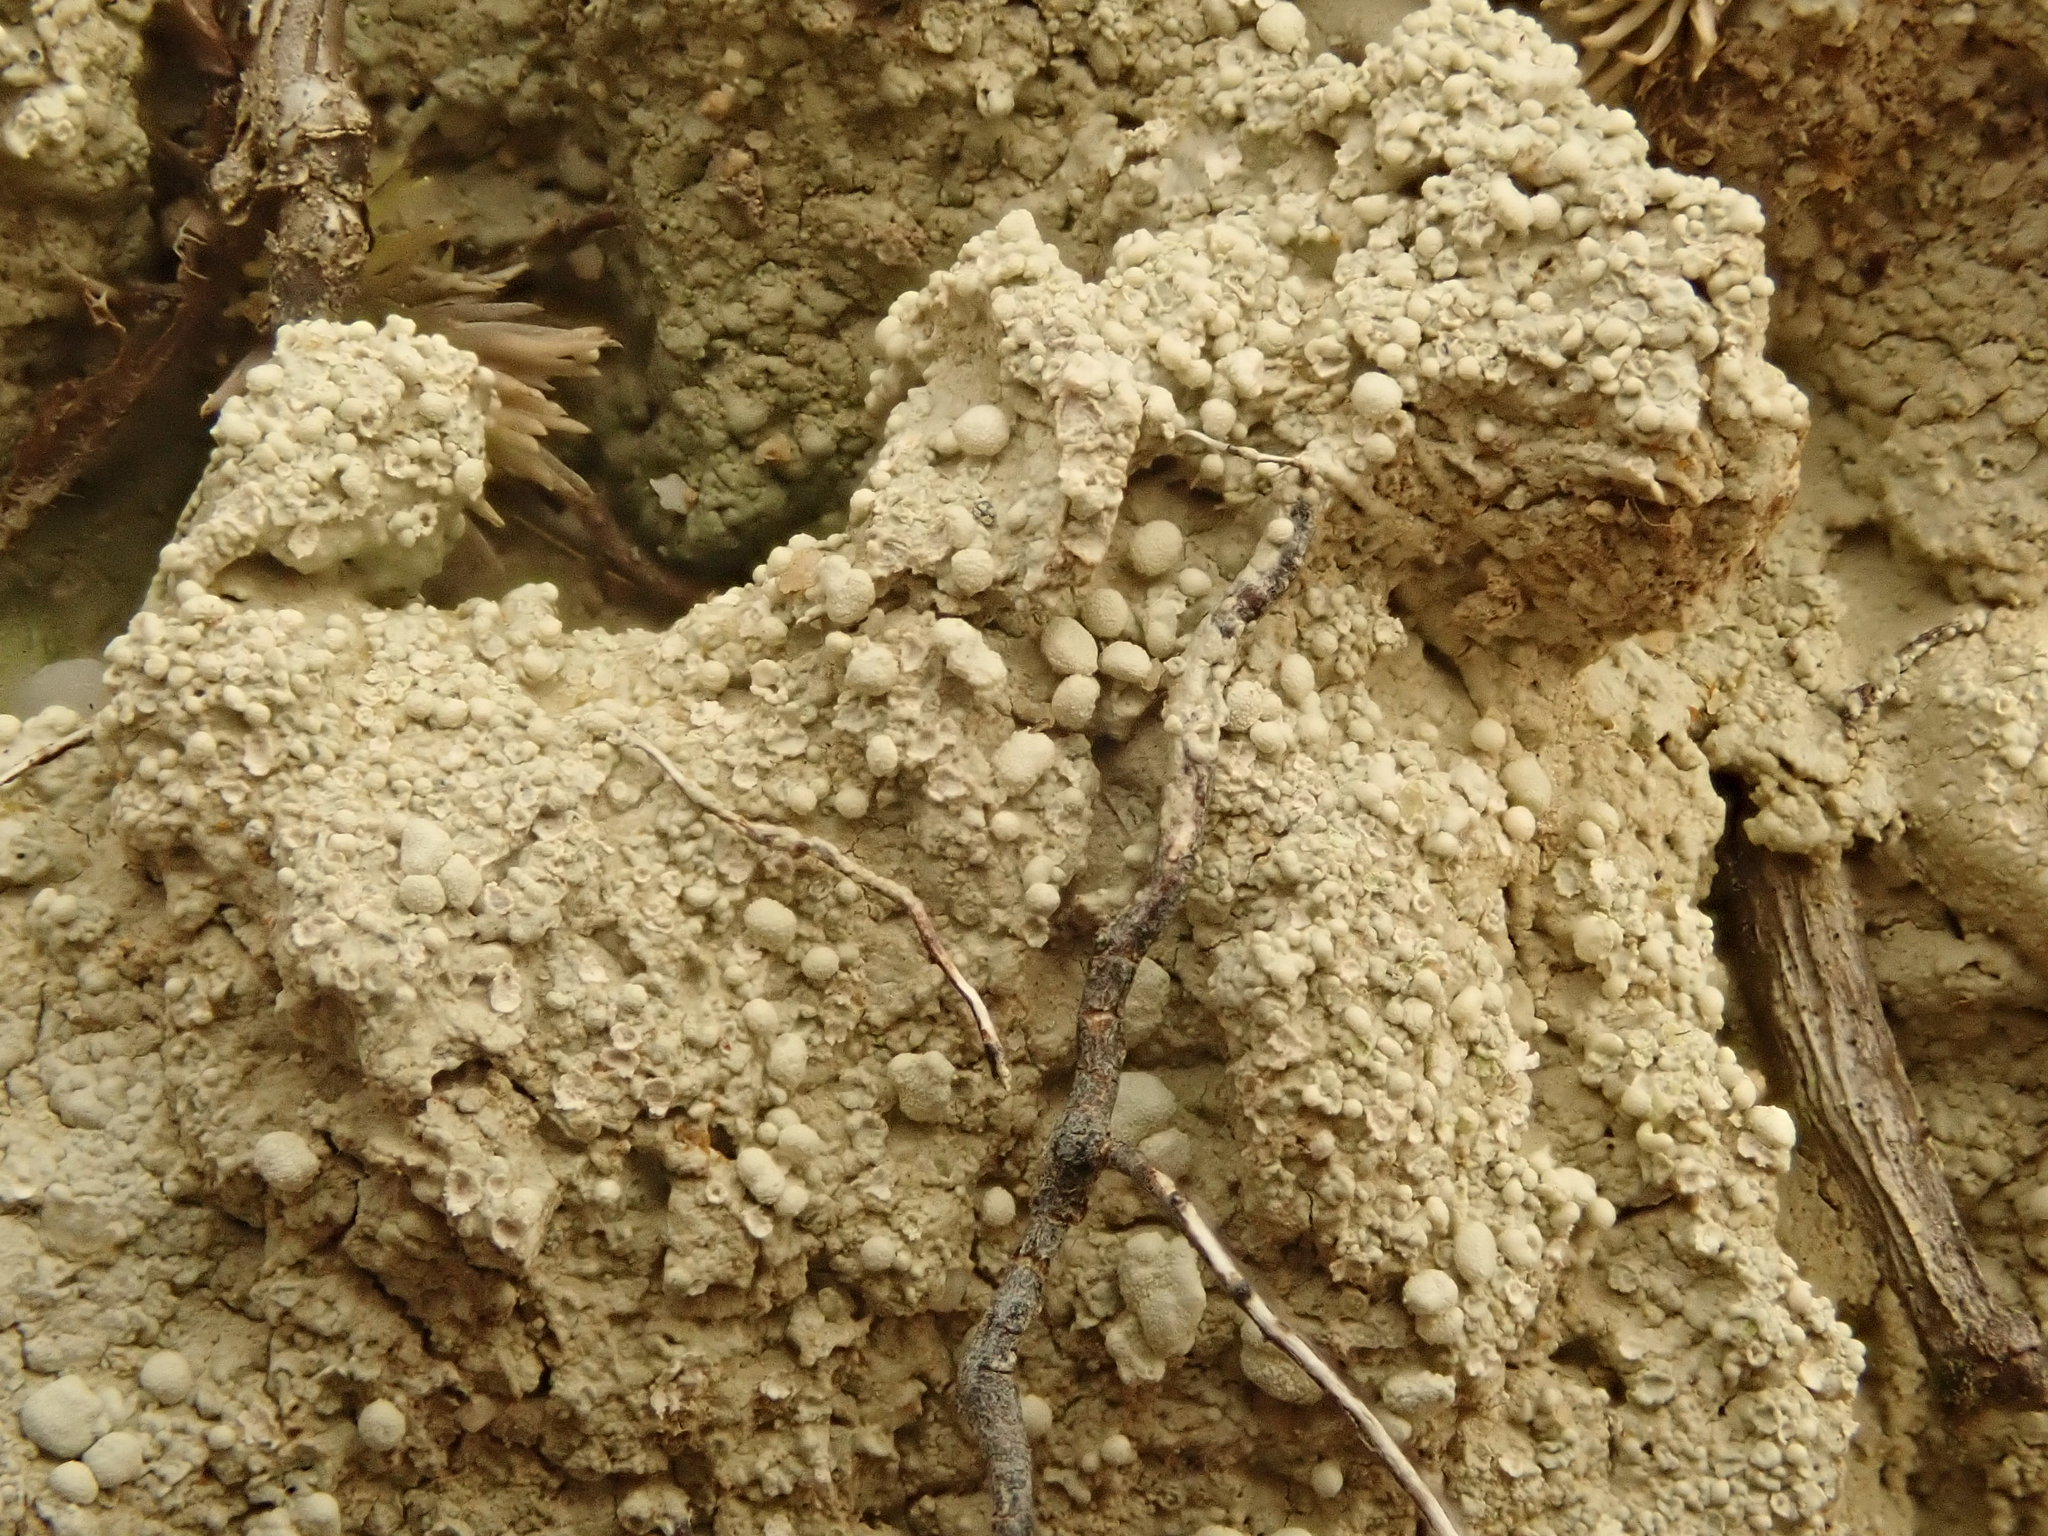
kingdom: Fungi
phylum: Ascomycota
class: Lecanoromycetes
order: Pertusariales
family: Icmadophilaceae
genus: Dibaeis
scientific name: Dibaeis baeomyces
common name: Pink earth lichen
